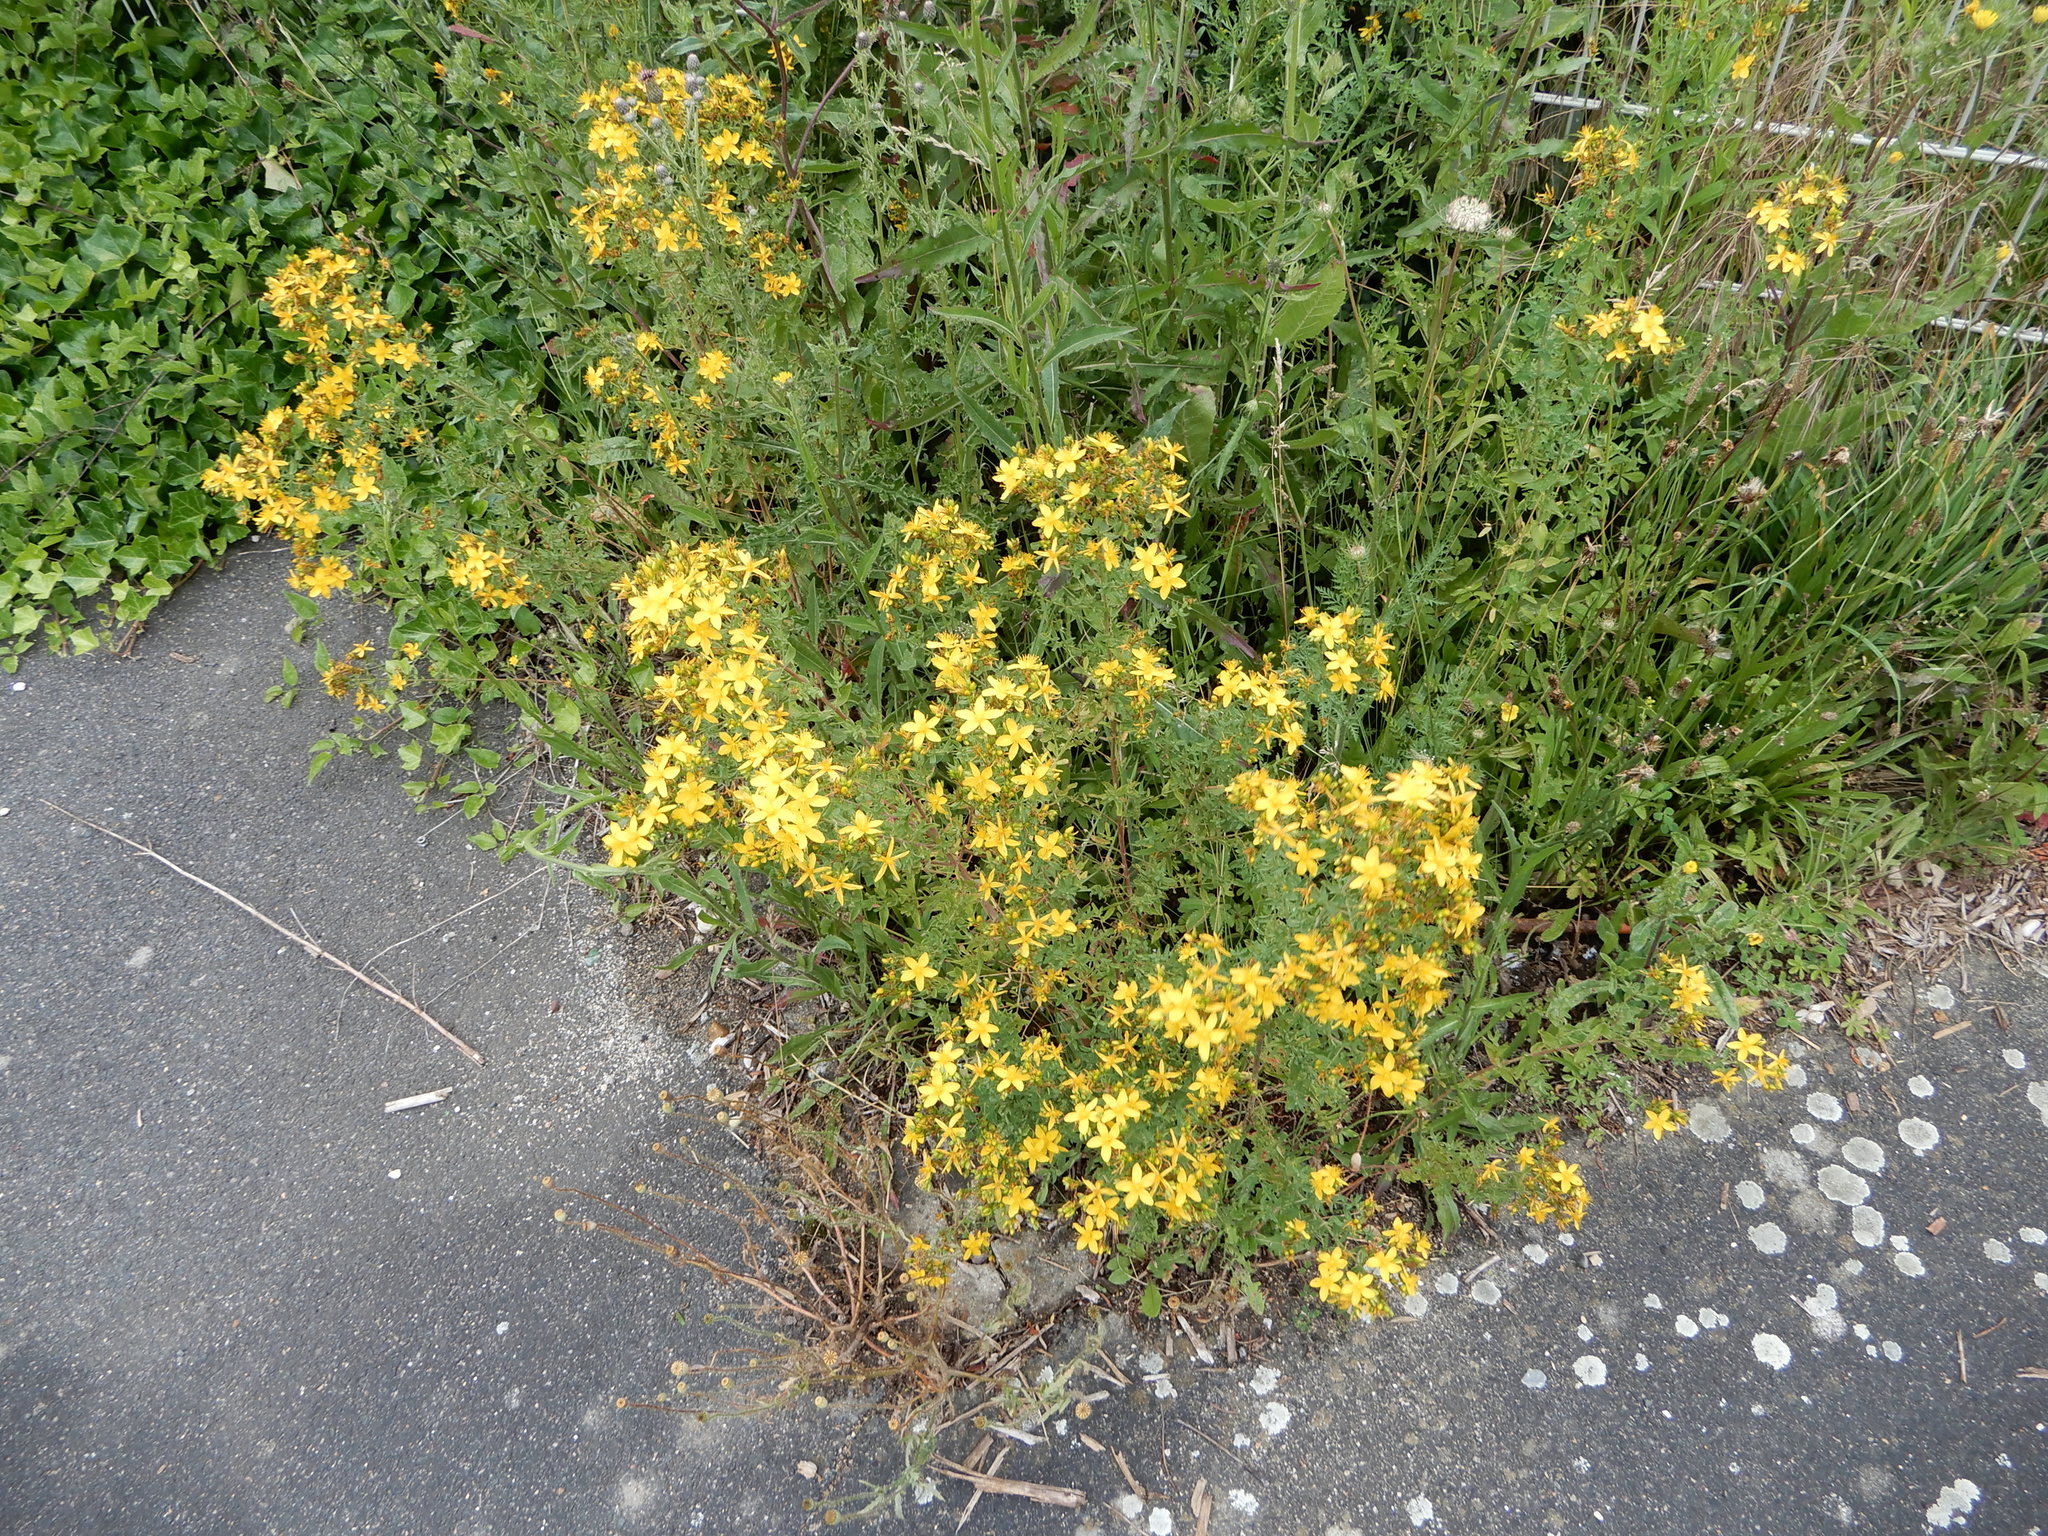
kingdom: Plantae
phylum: Tracheophyta
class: Magnoliopsida
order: Malpighiales
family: Hypericaceae
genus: Hypericum
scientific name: Hypericum perforatum
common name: Common st. johnswort
